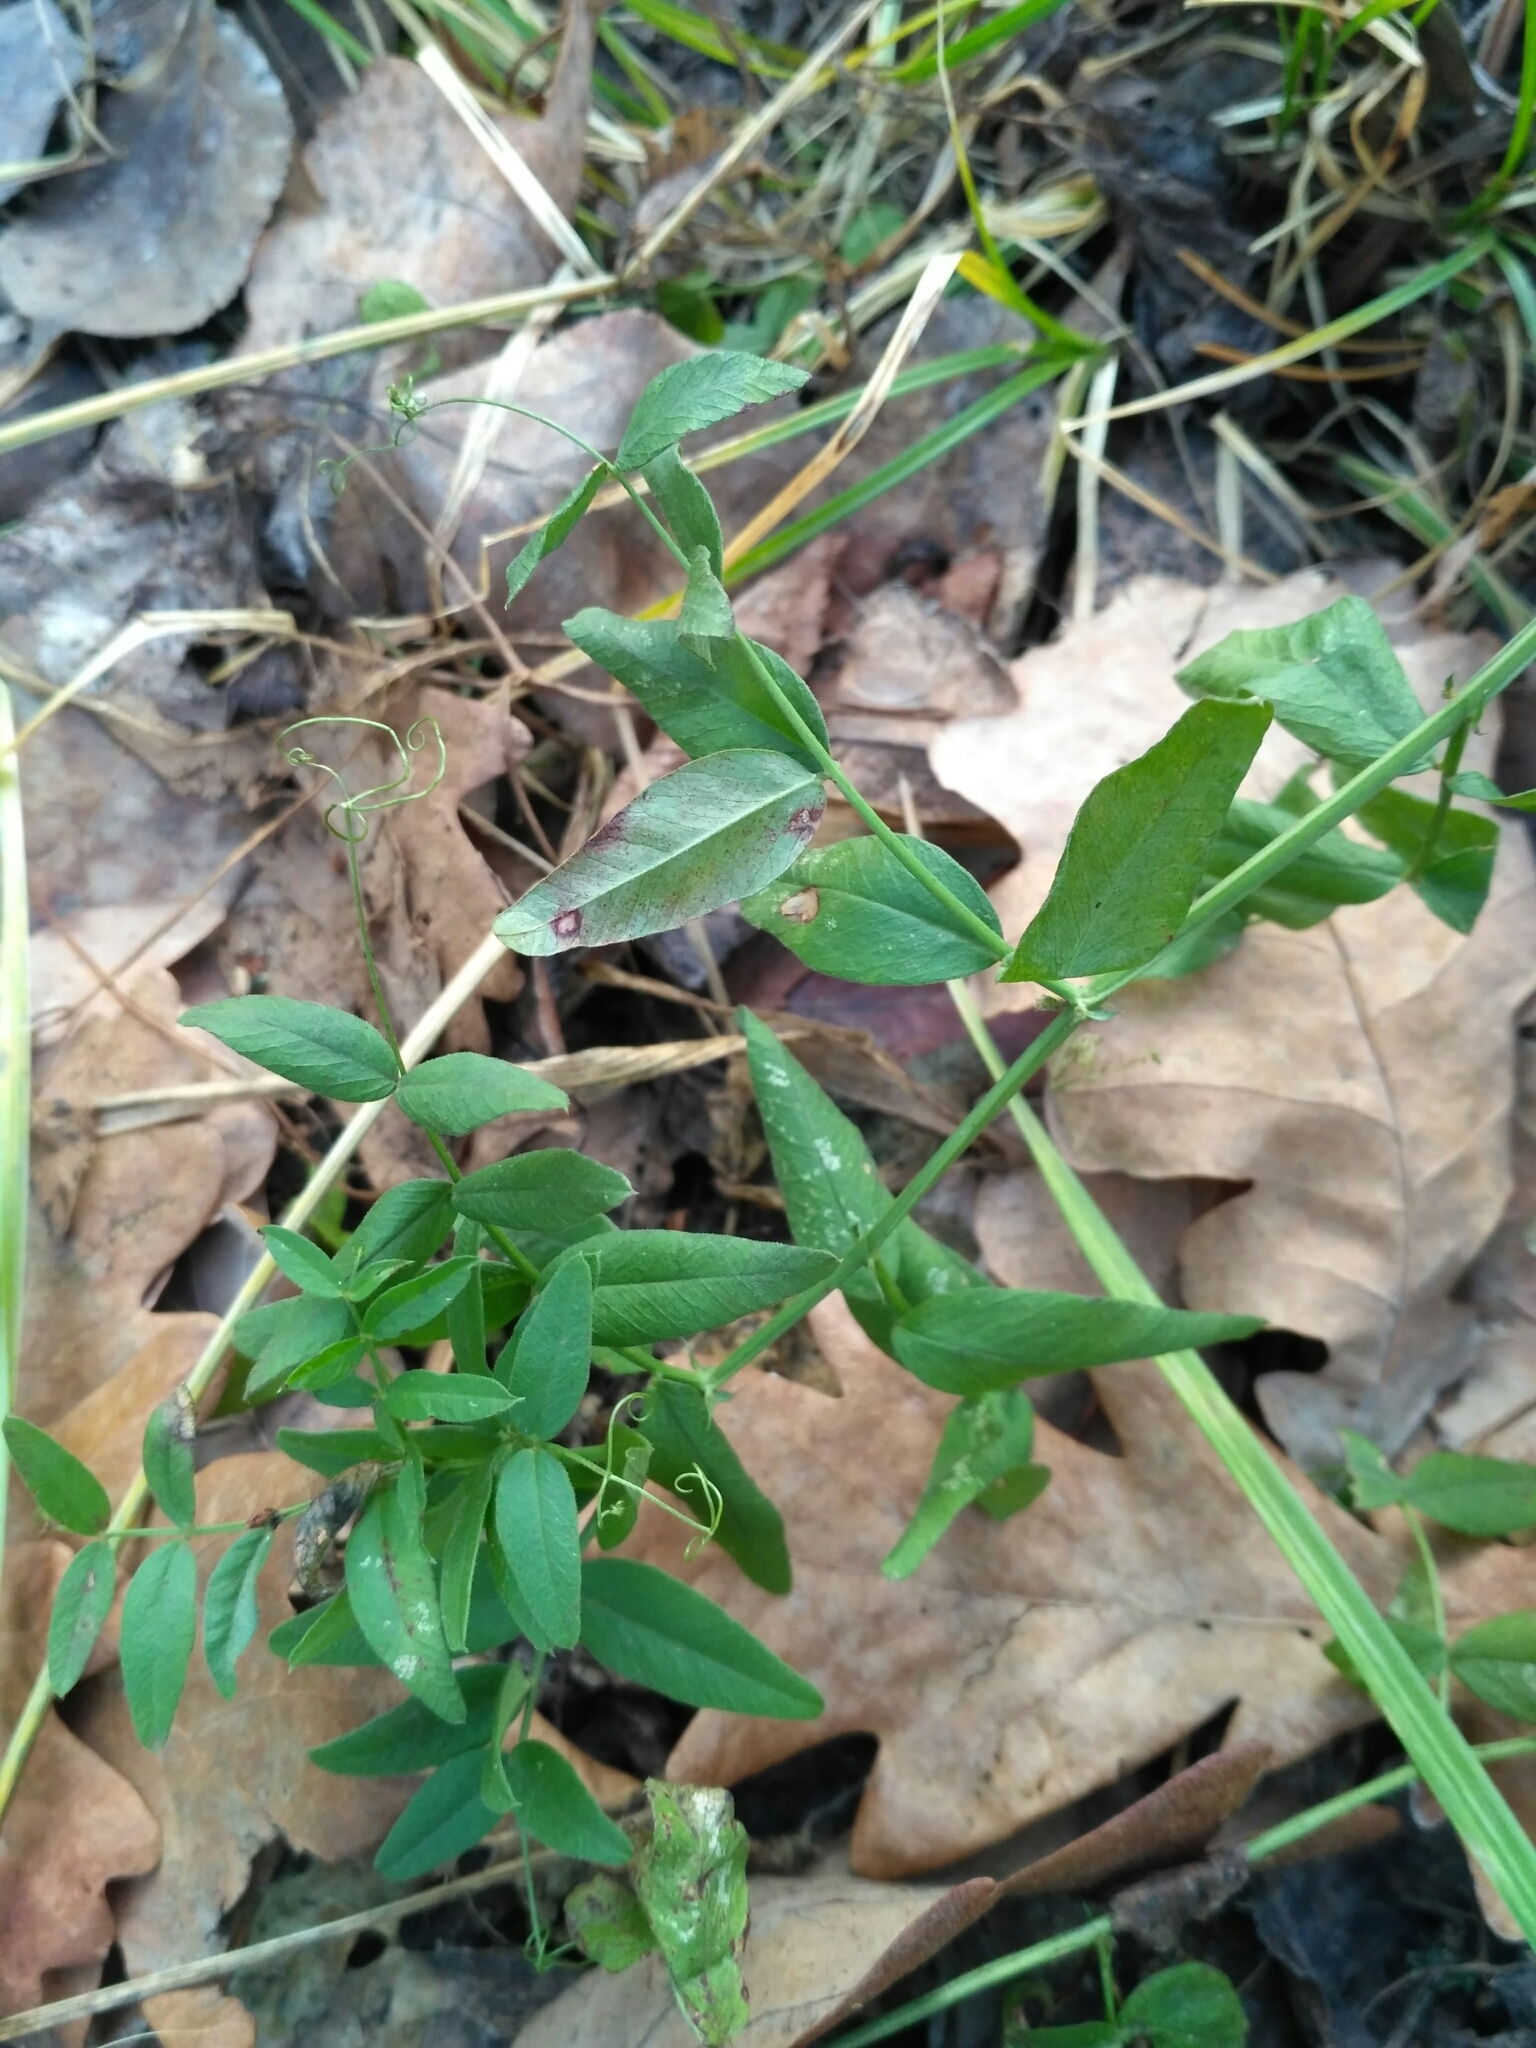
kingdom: Plantae
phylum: Tracheophyta
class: Magnoliopsida
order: Fabales
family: Fabaceae
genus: Vicia
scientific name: Vicia sepium
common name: Bush vetch
